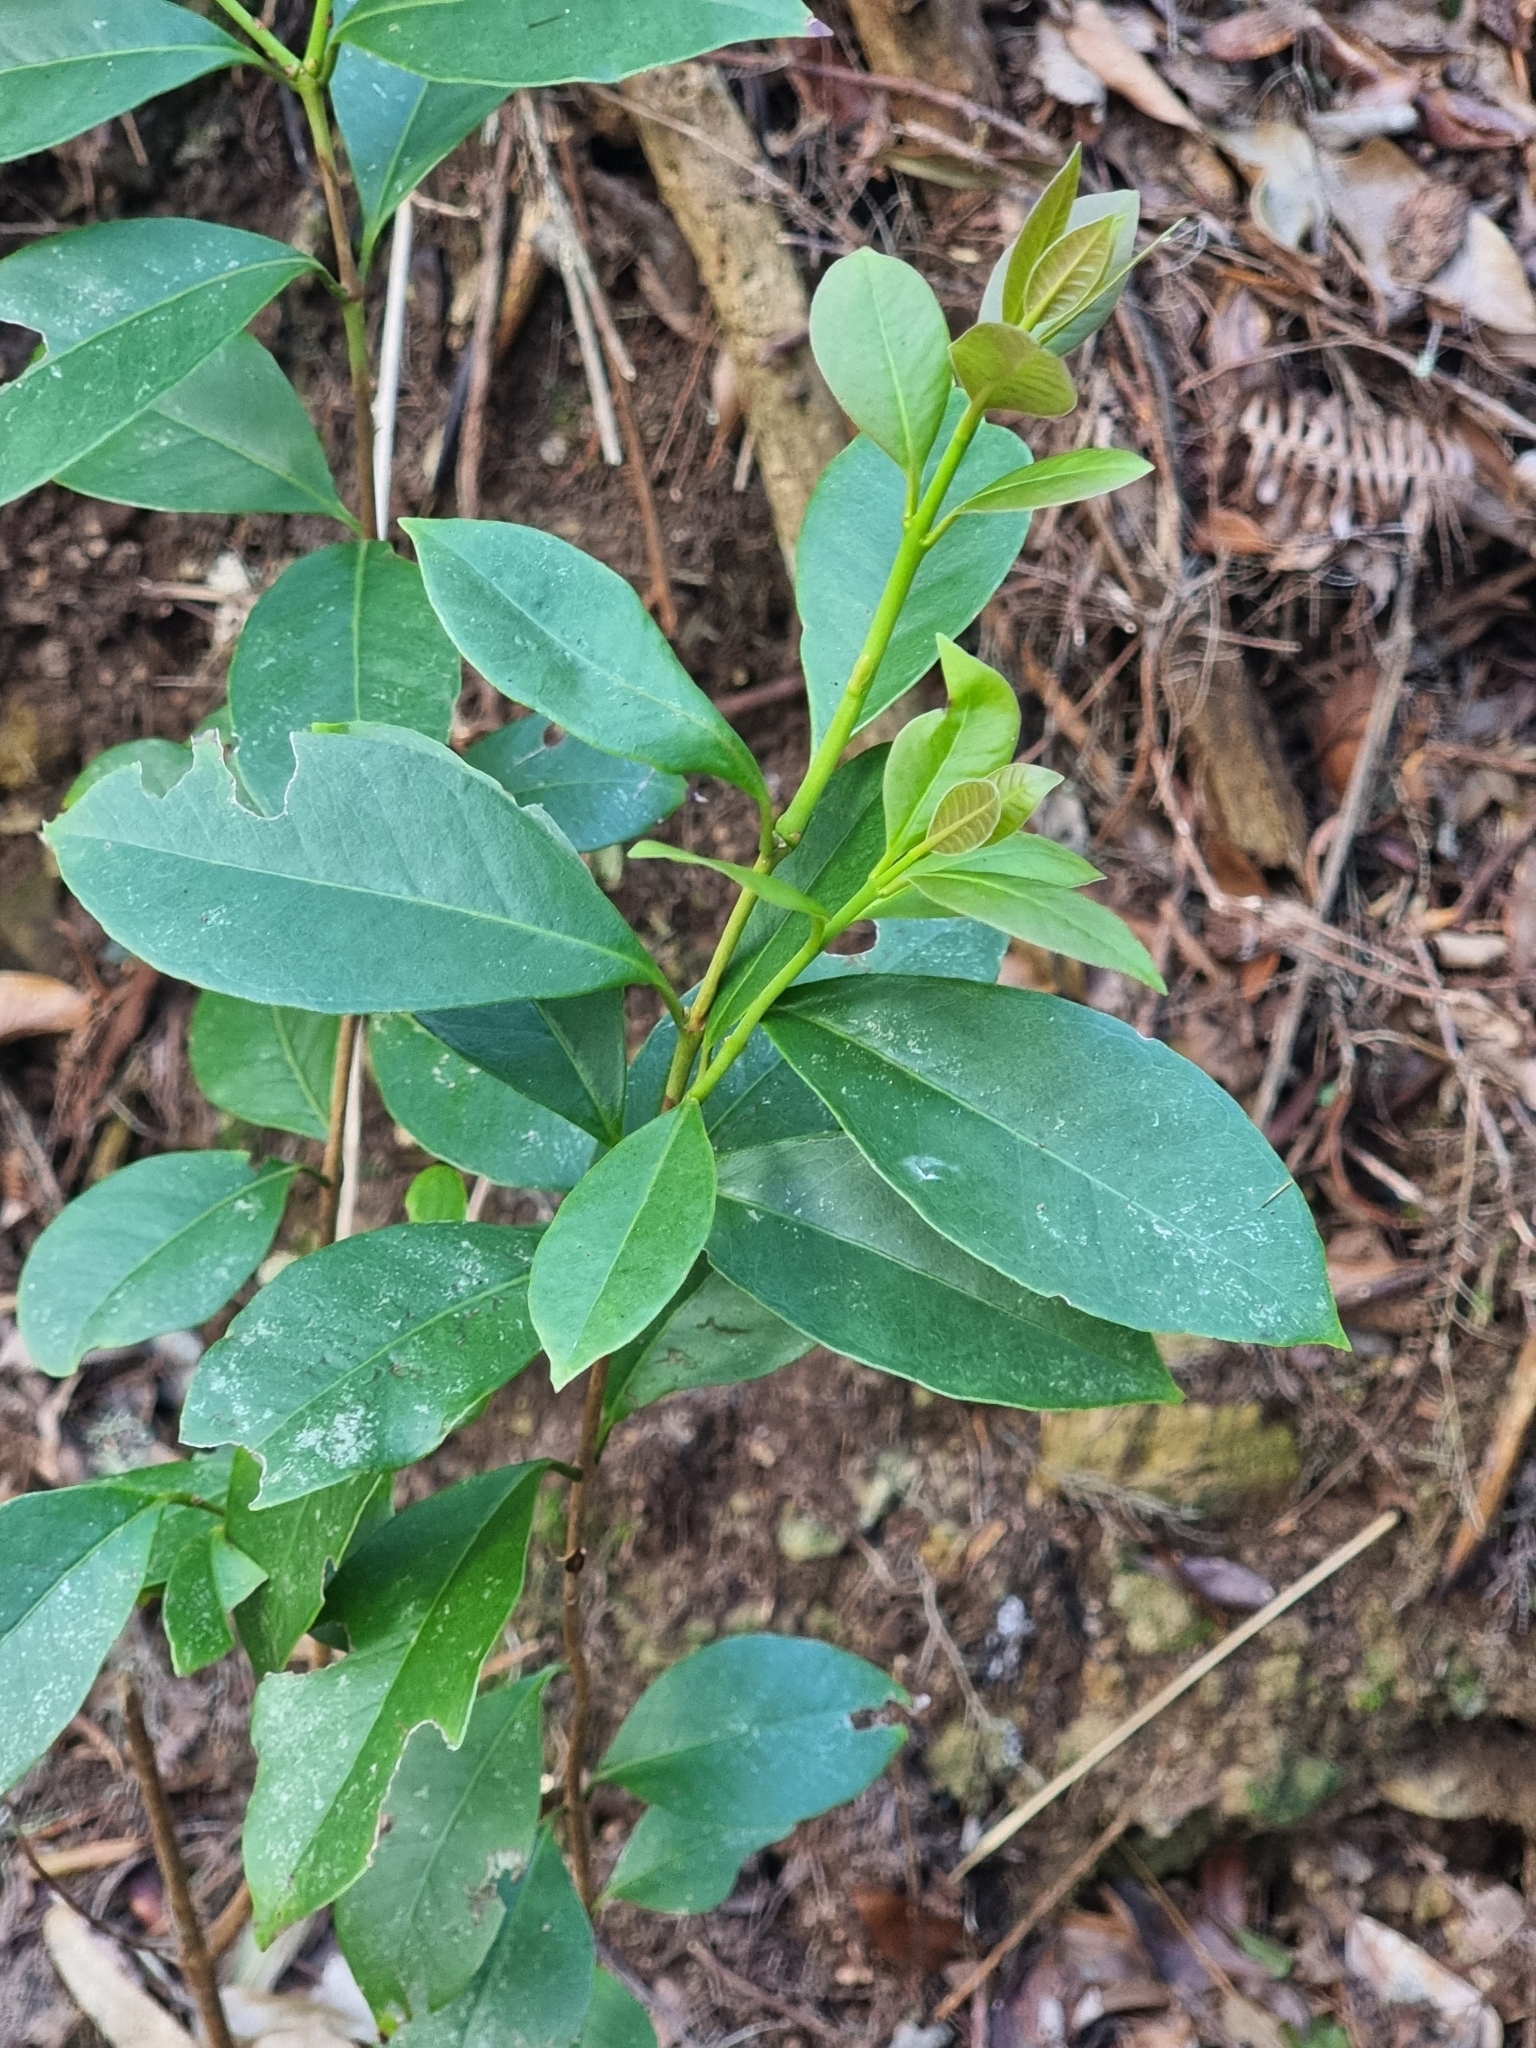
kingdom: Plantae
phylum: Tracheophyta
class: Magnoliopsida
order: Myrtales
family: Myrtaceae
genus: Psidium
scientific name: Psidium cattleianum
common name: Strawberry guava
